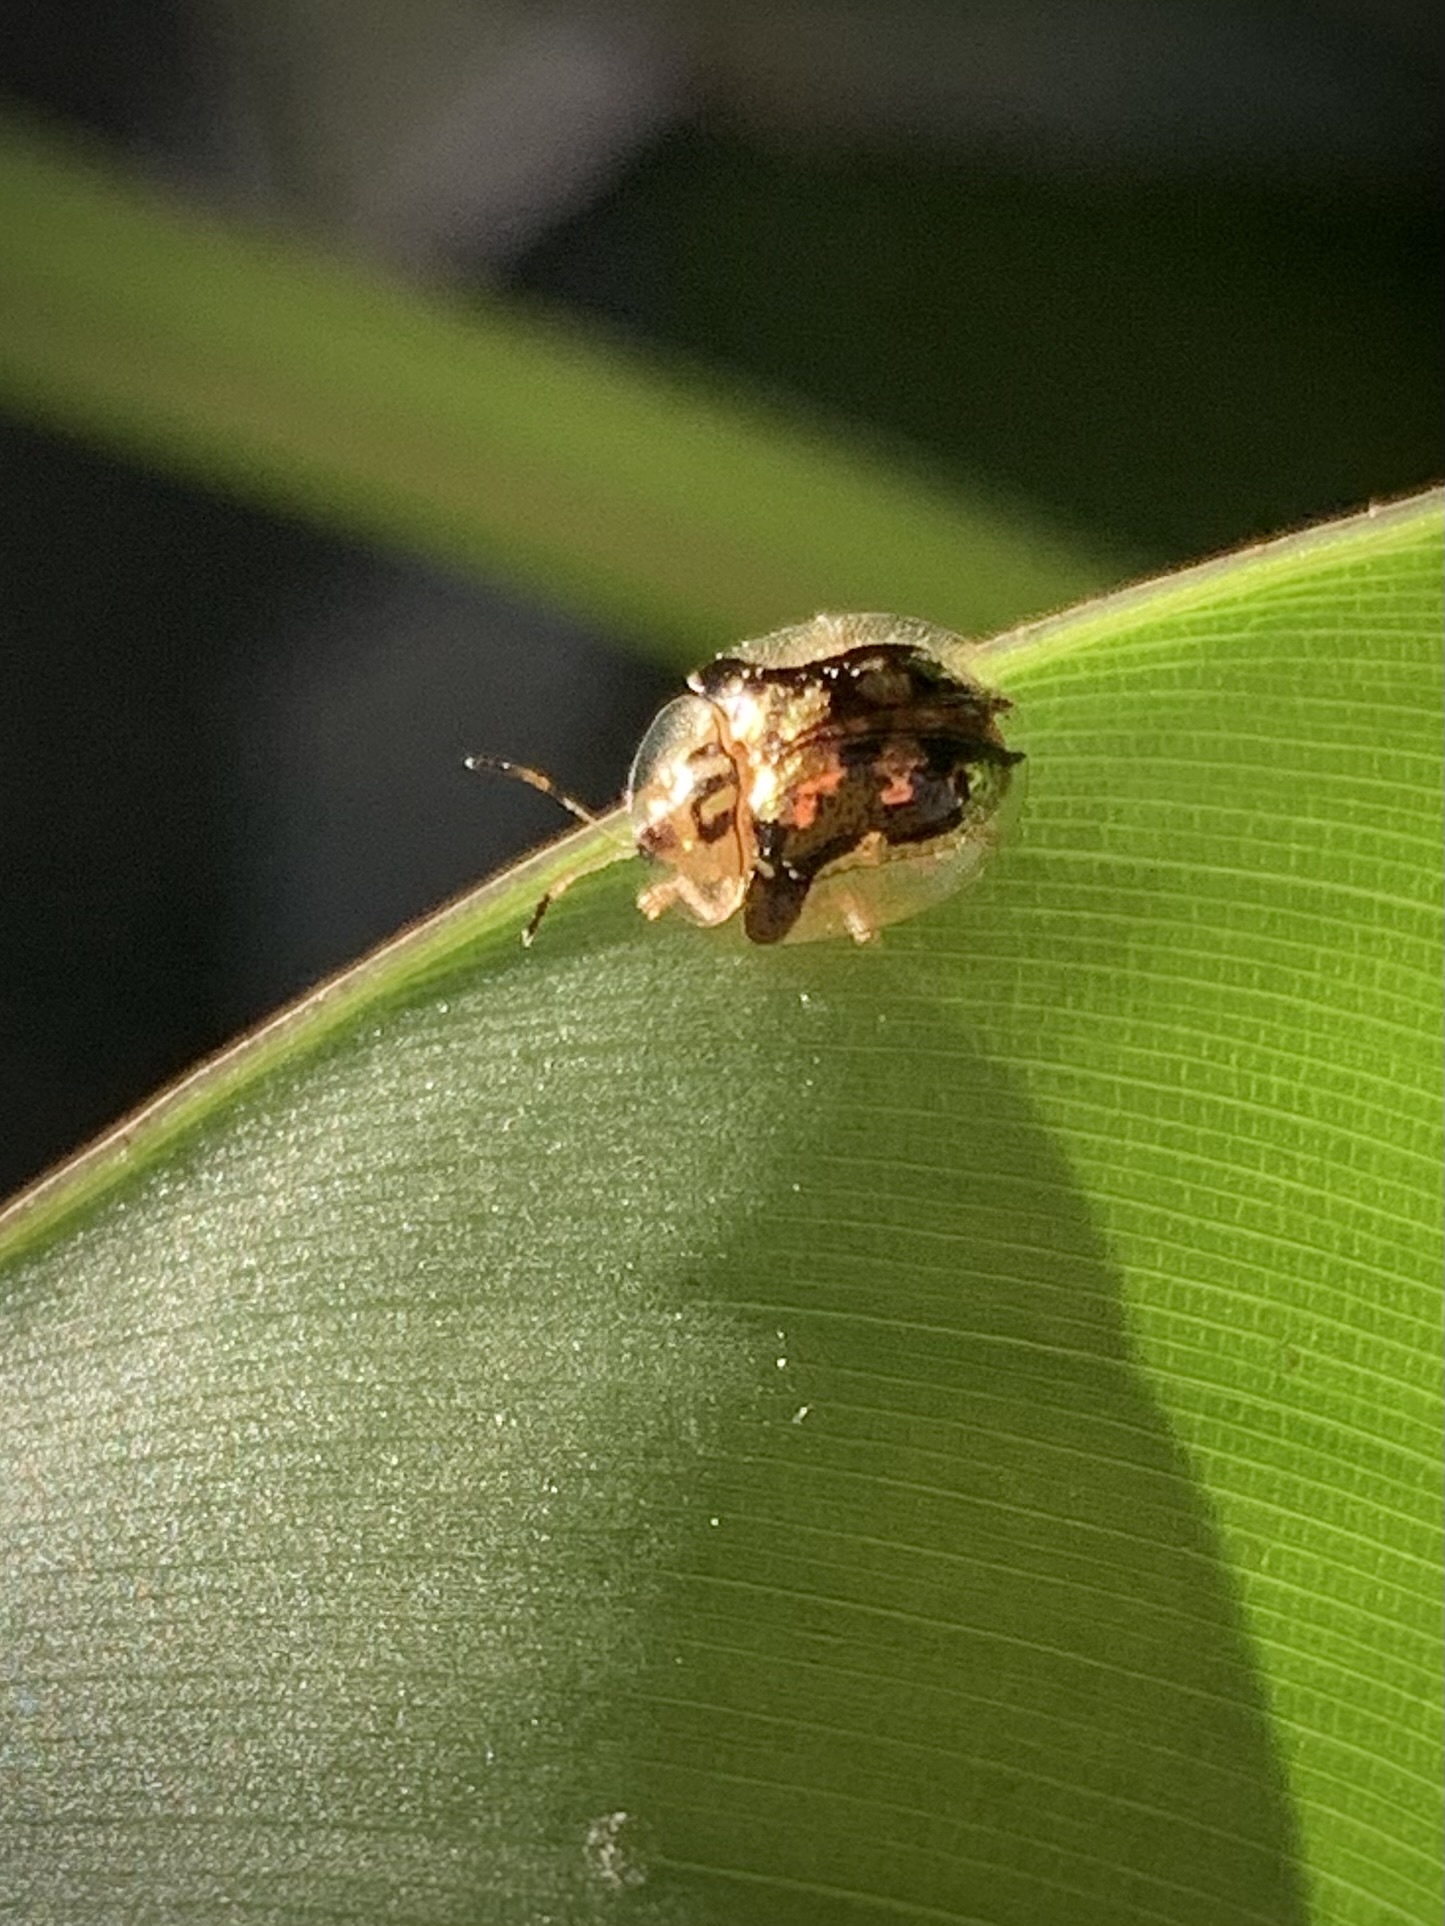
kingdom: Animalia
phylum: Arthropoda
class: Insecta
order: Coleoptera
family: Chrysomelidae
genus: Deloyala
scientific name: Deloyala guttata
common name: Mottled tortoise beetle
